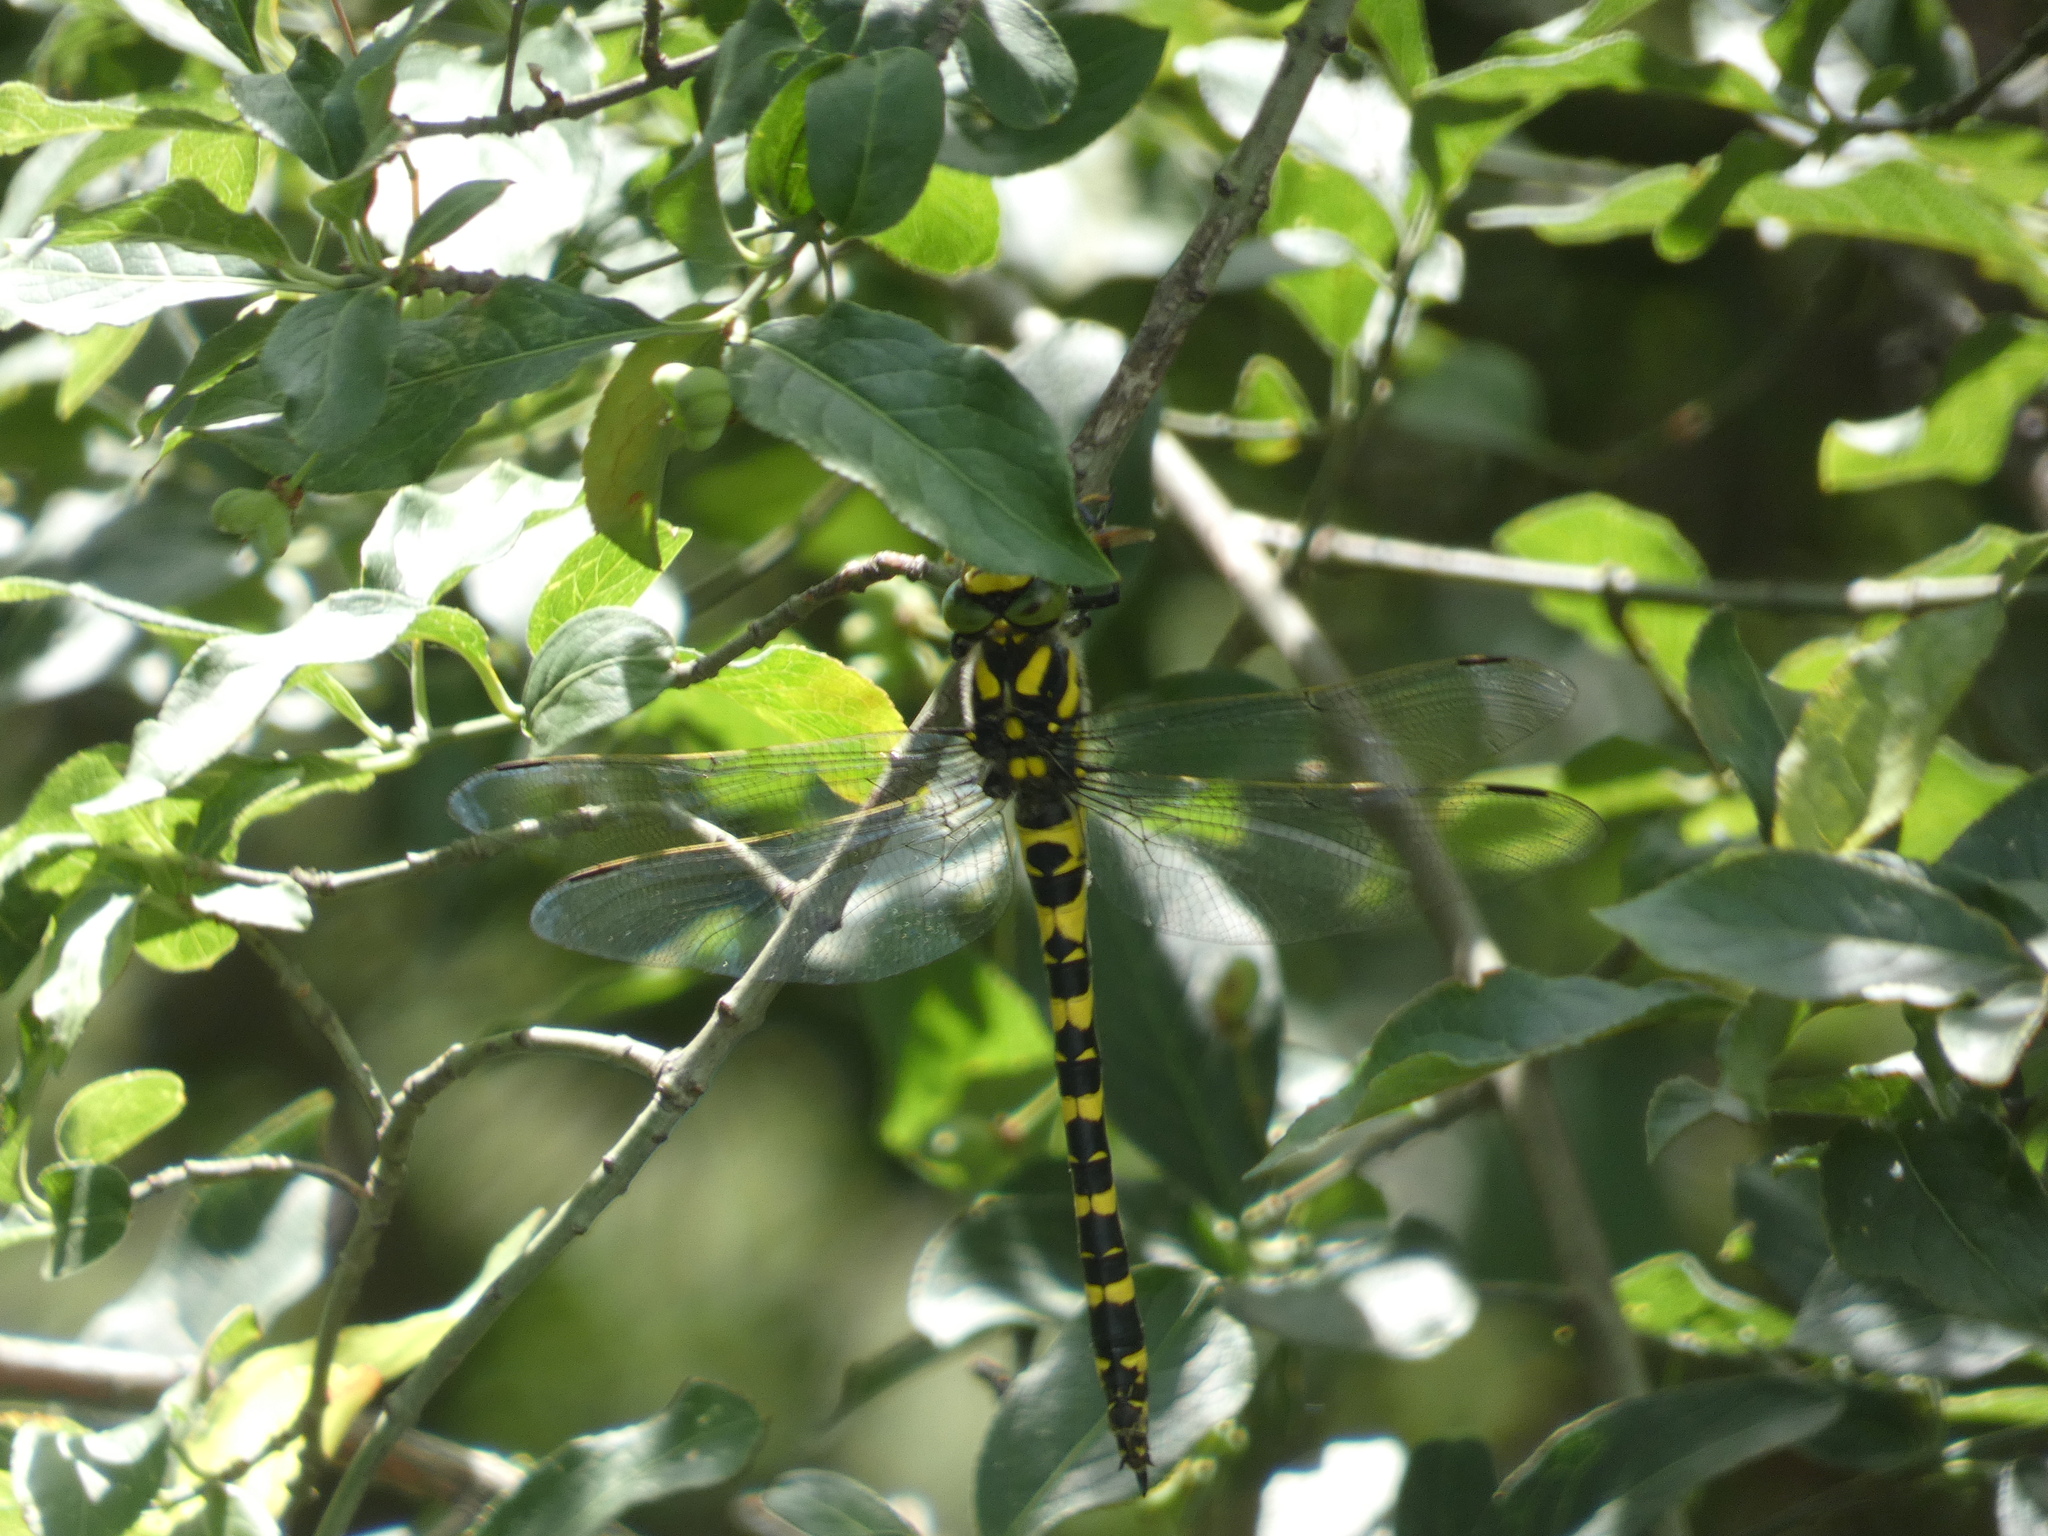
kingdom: Animalia
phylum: Arthropoda
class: Insecta
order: Odonata
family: Cordulegastridae
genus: Cordulegaster
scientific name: Cordulegaster boltonii
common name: Golden-ringed dragonfly
